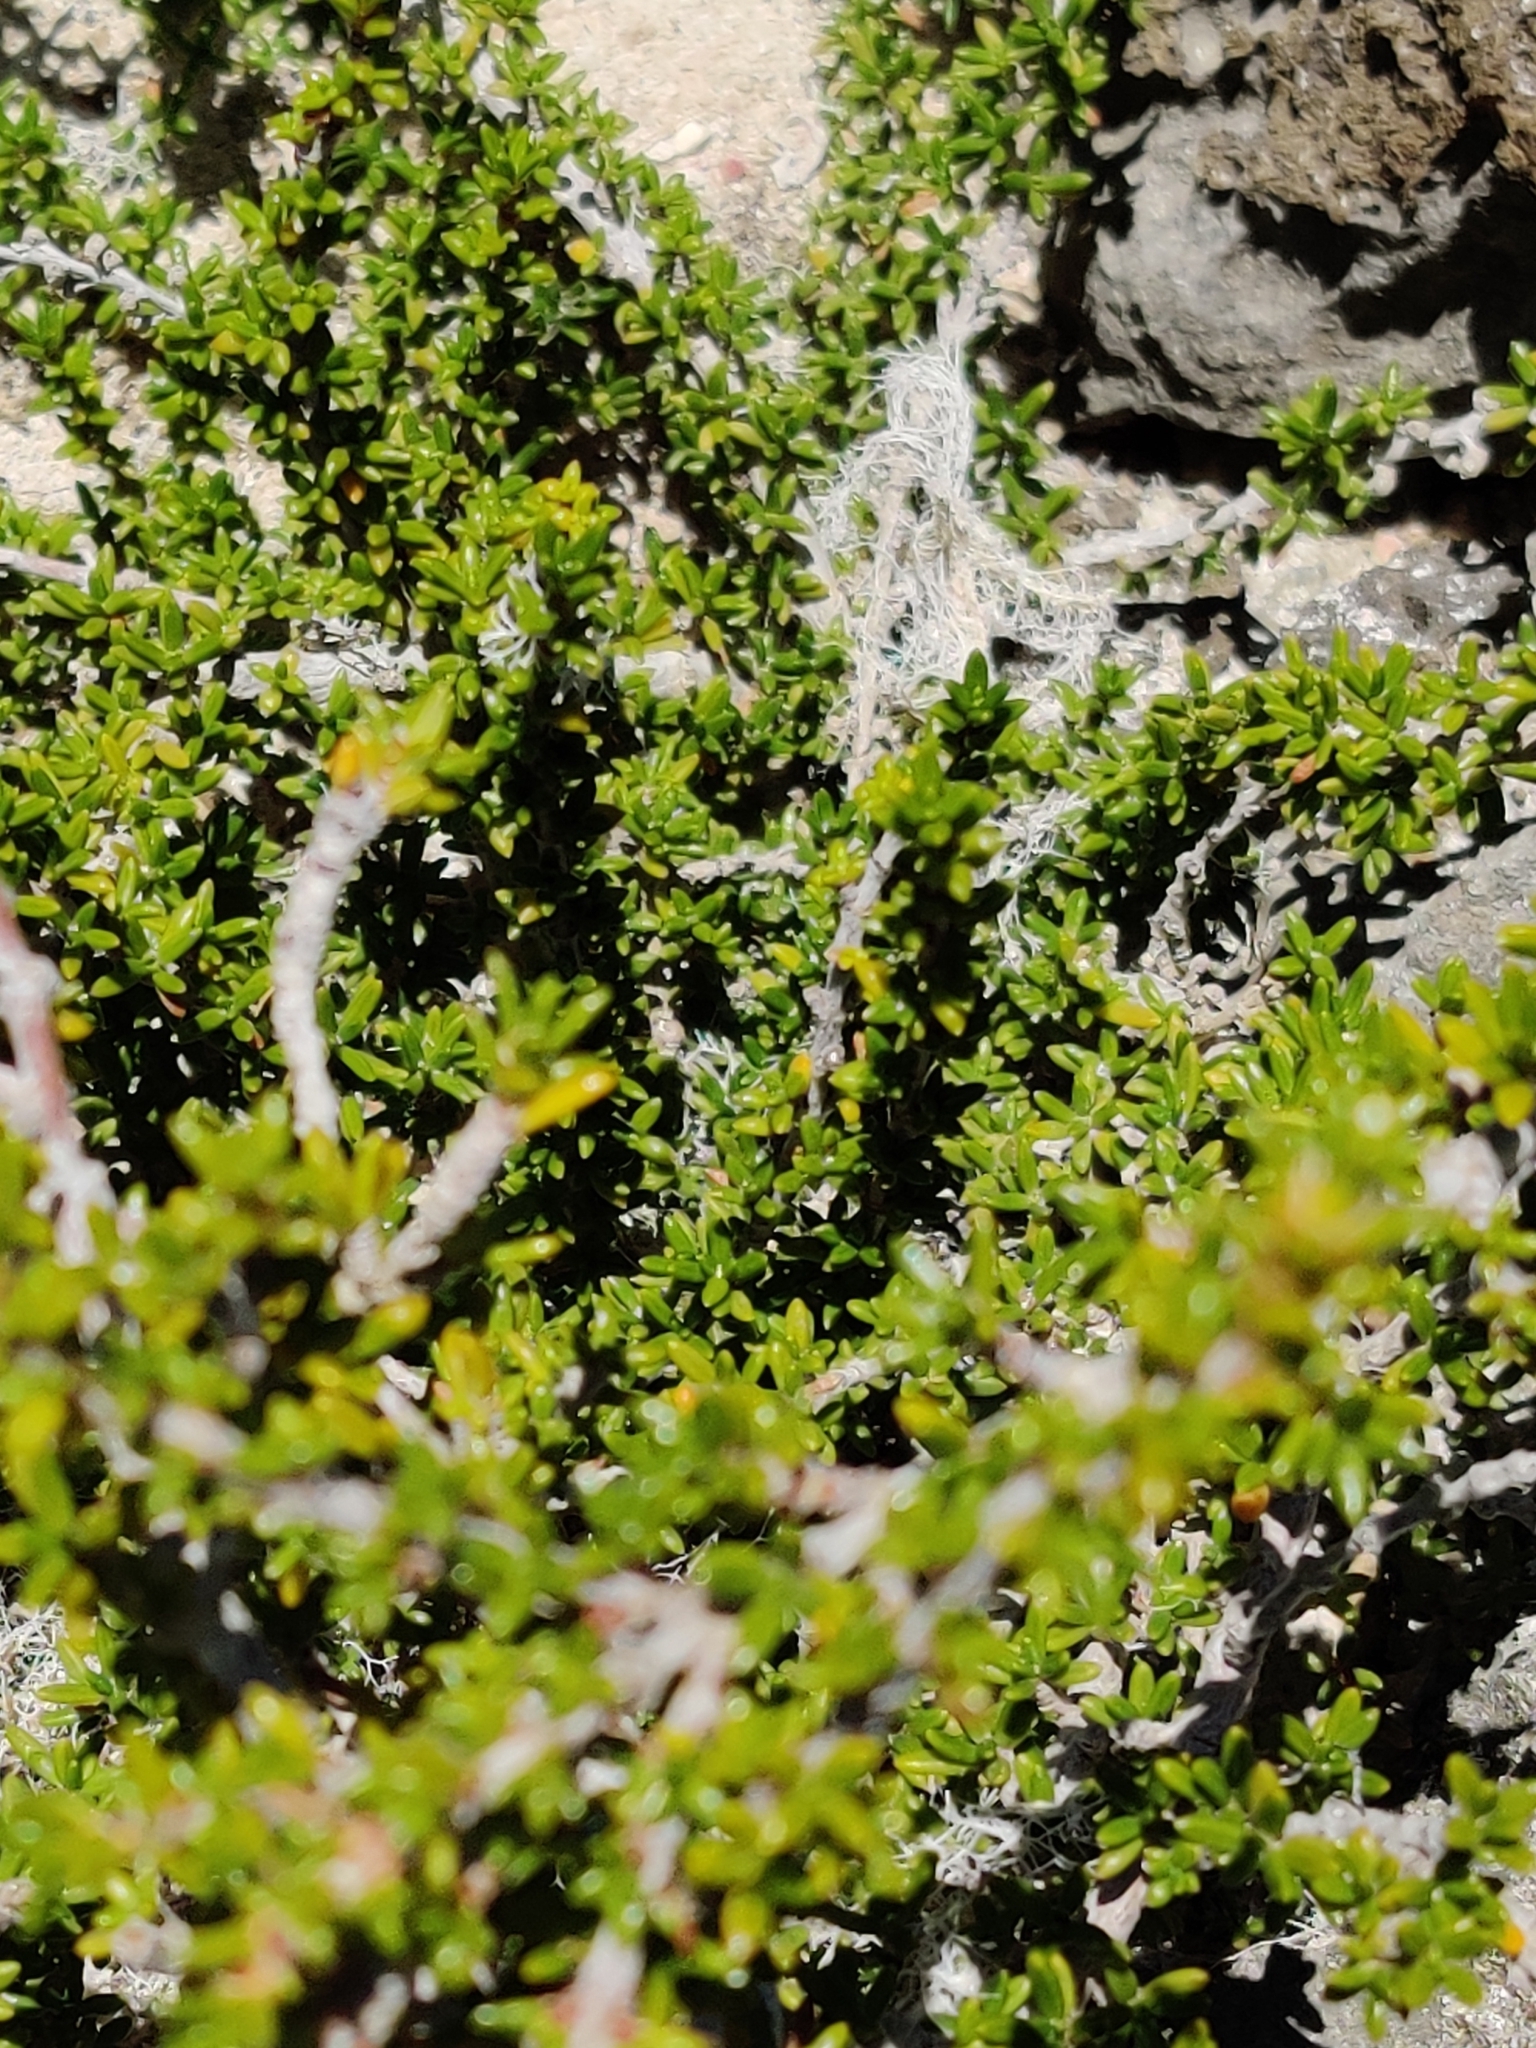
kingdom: Plantae
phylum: Tracheophyta
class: Magnoliopsida
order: Gentianales
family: Rubiaceae
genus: Rachicallis
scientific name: Rachicallis americana
